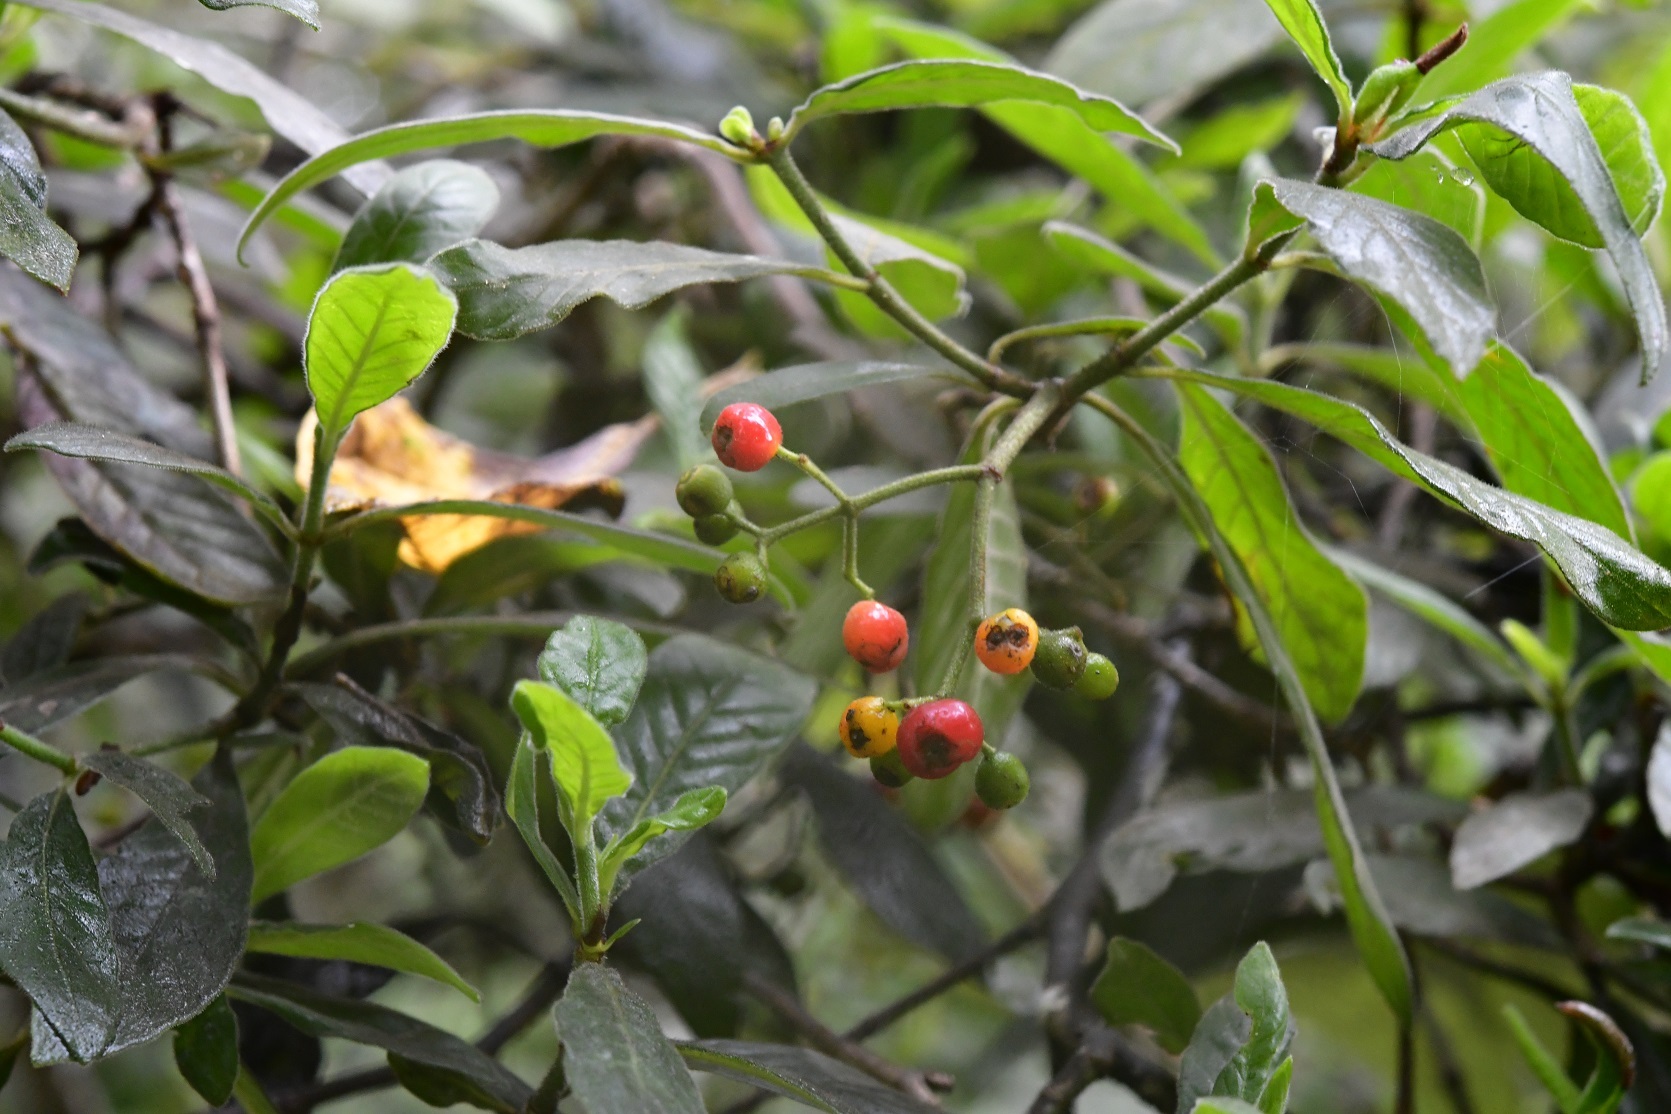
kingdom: Plantae
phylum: Tracheophyta
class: Magnoliopsida
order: Gentianales
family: Rubiaceae
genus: Psychotria
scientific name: Psychotria erythrocarpa
